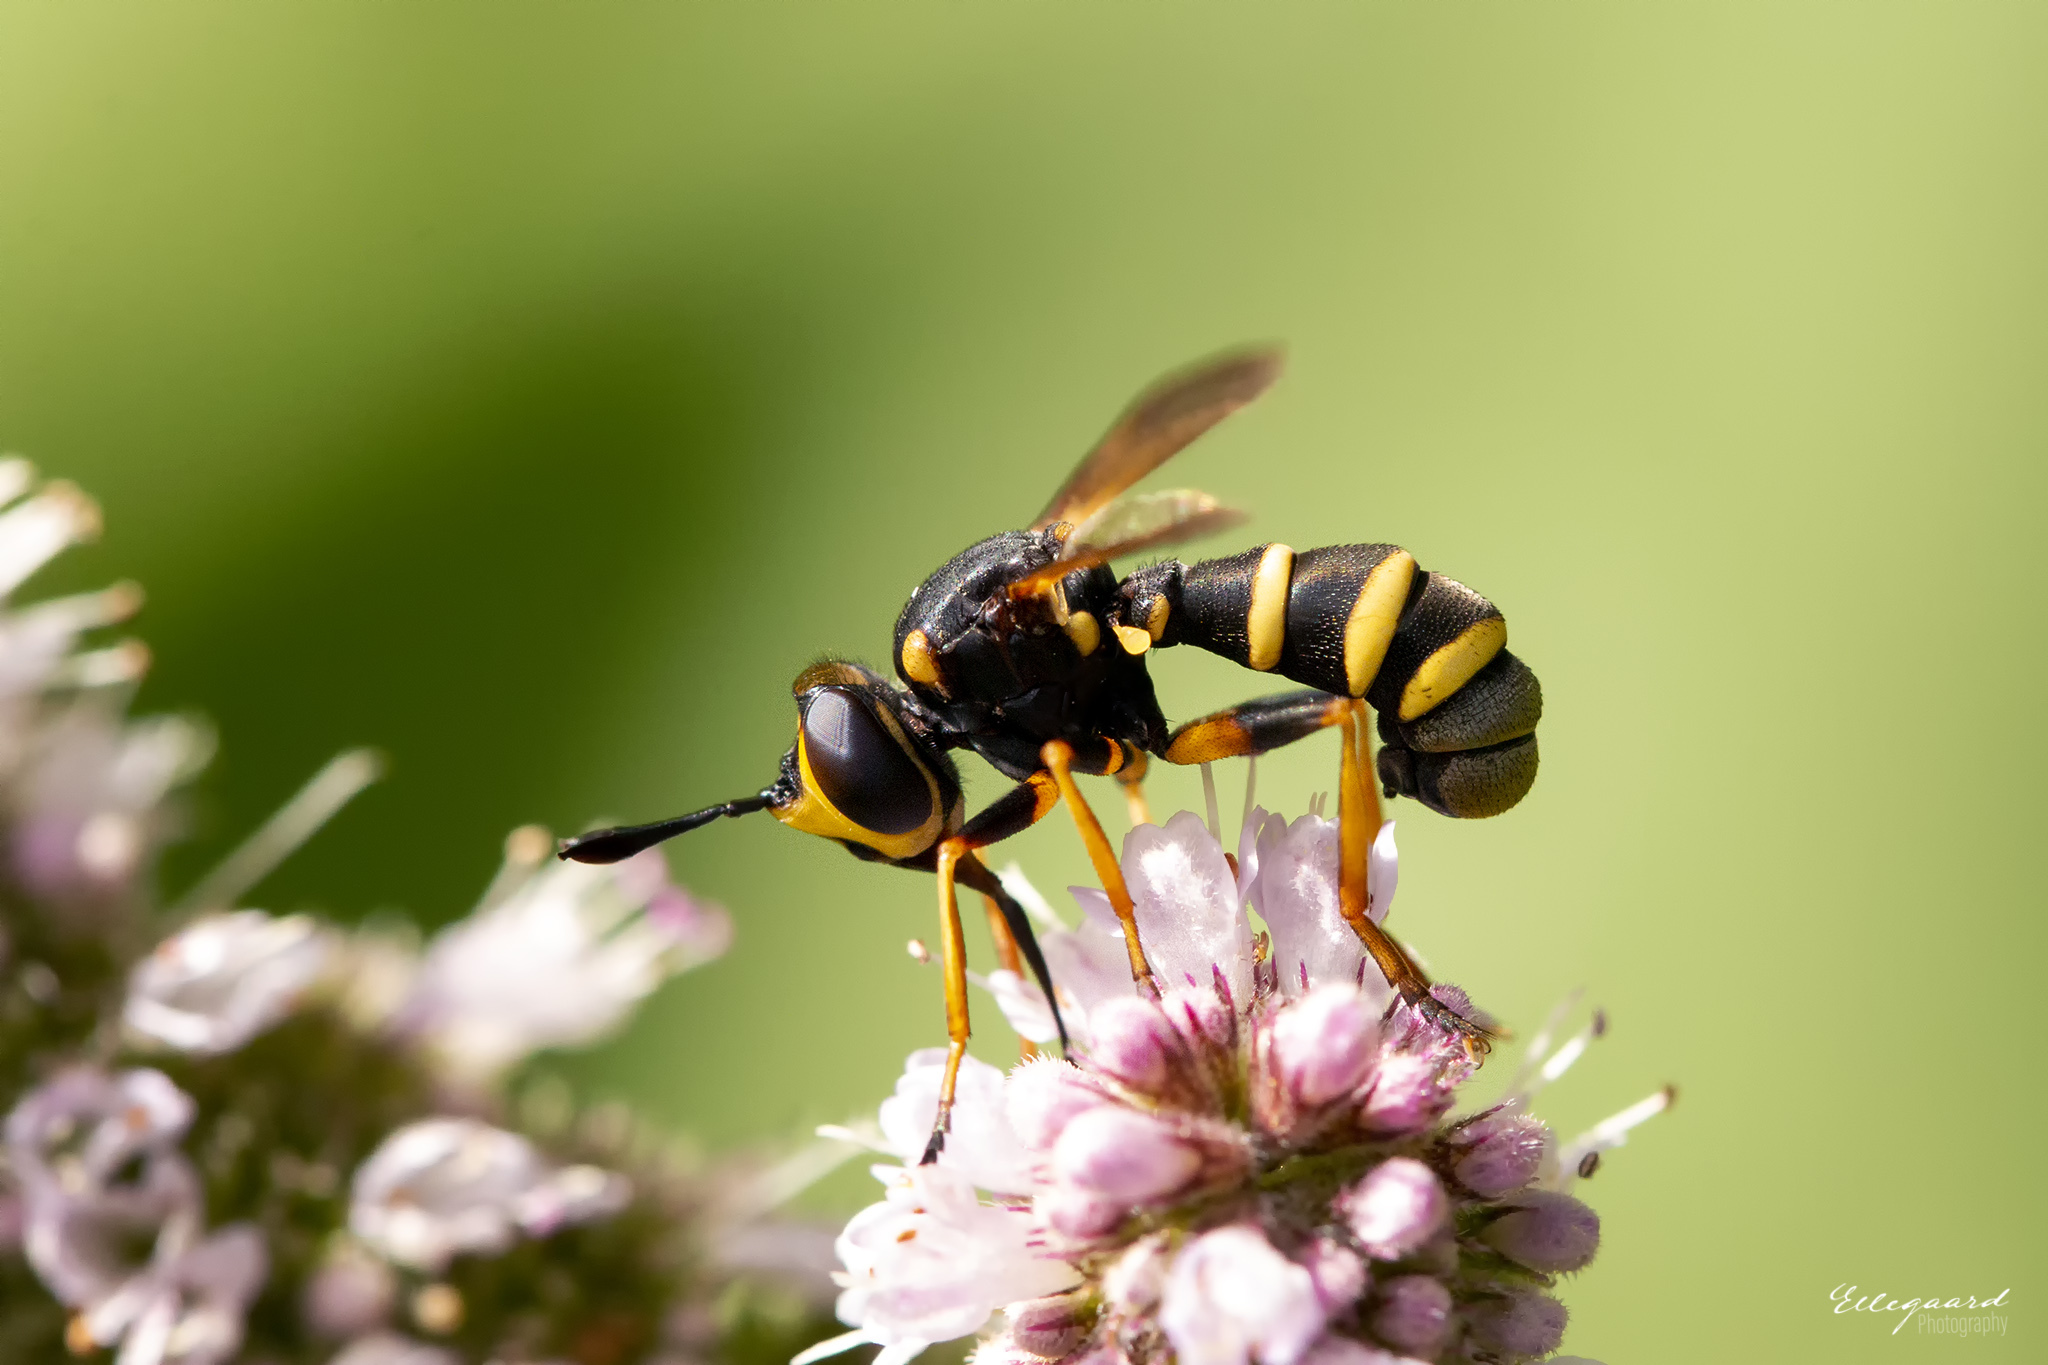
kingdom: Animalia
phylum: Arthropoda
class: Insecta
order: Diptera
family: Conopidae
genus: Conops
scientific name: Conops flavipes
